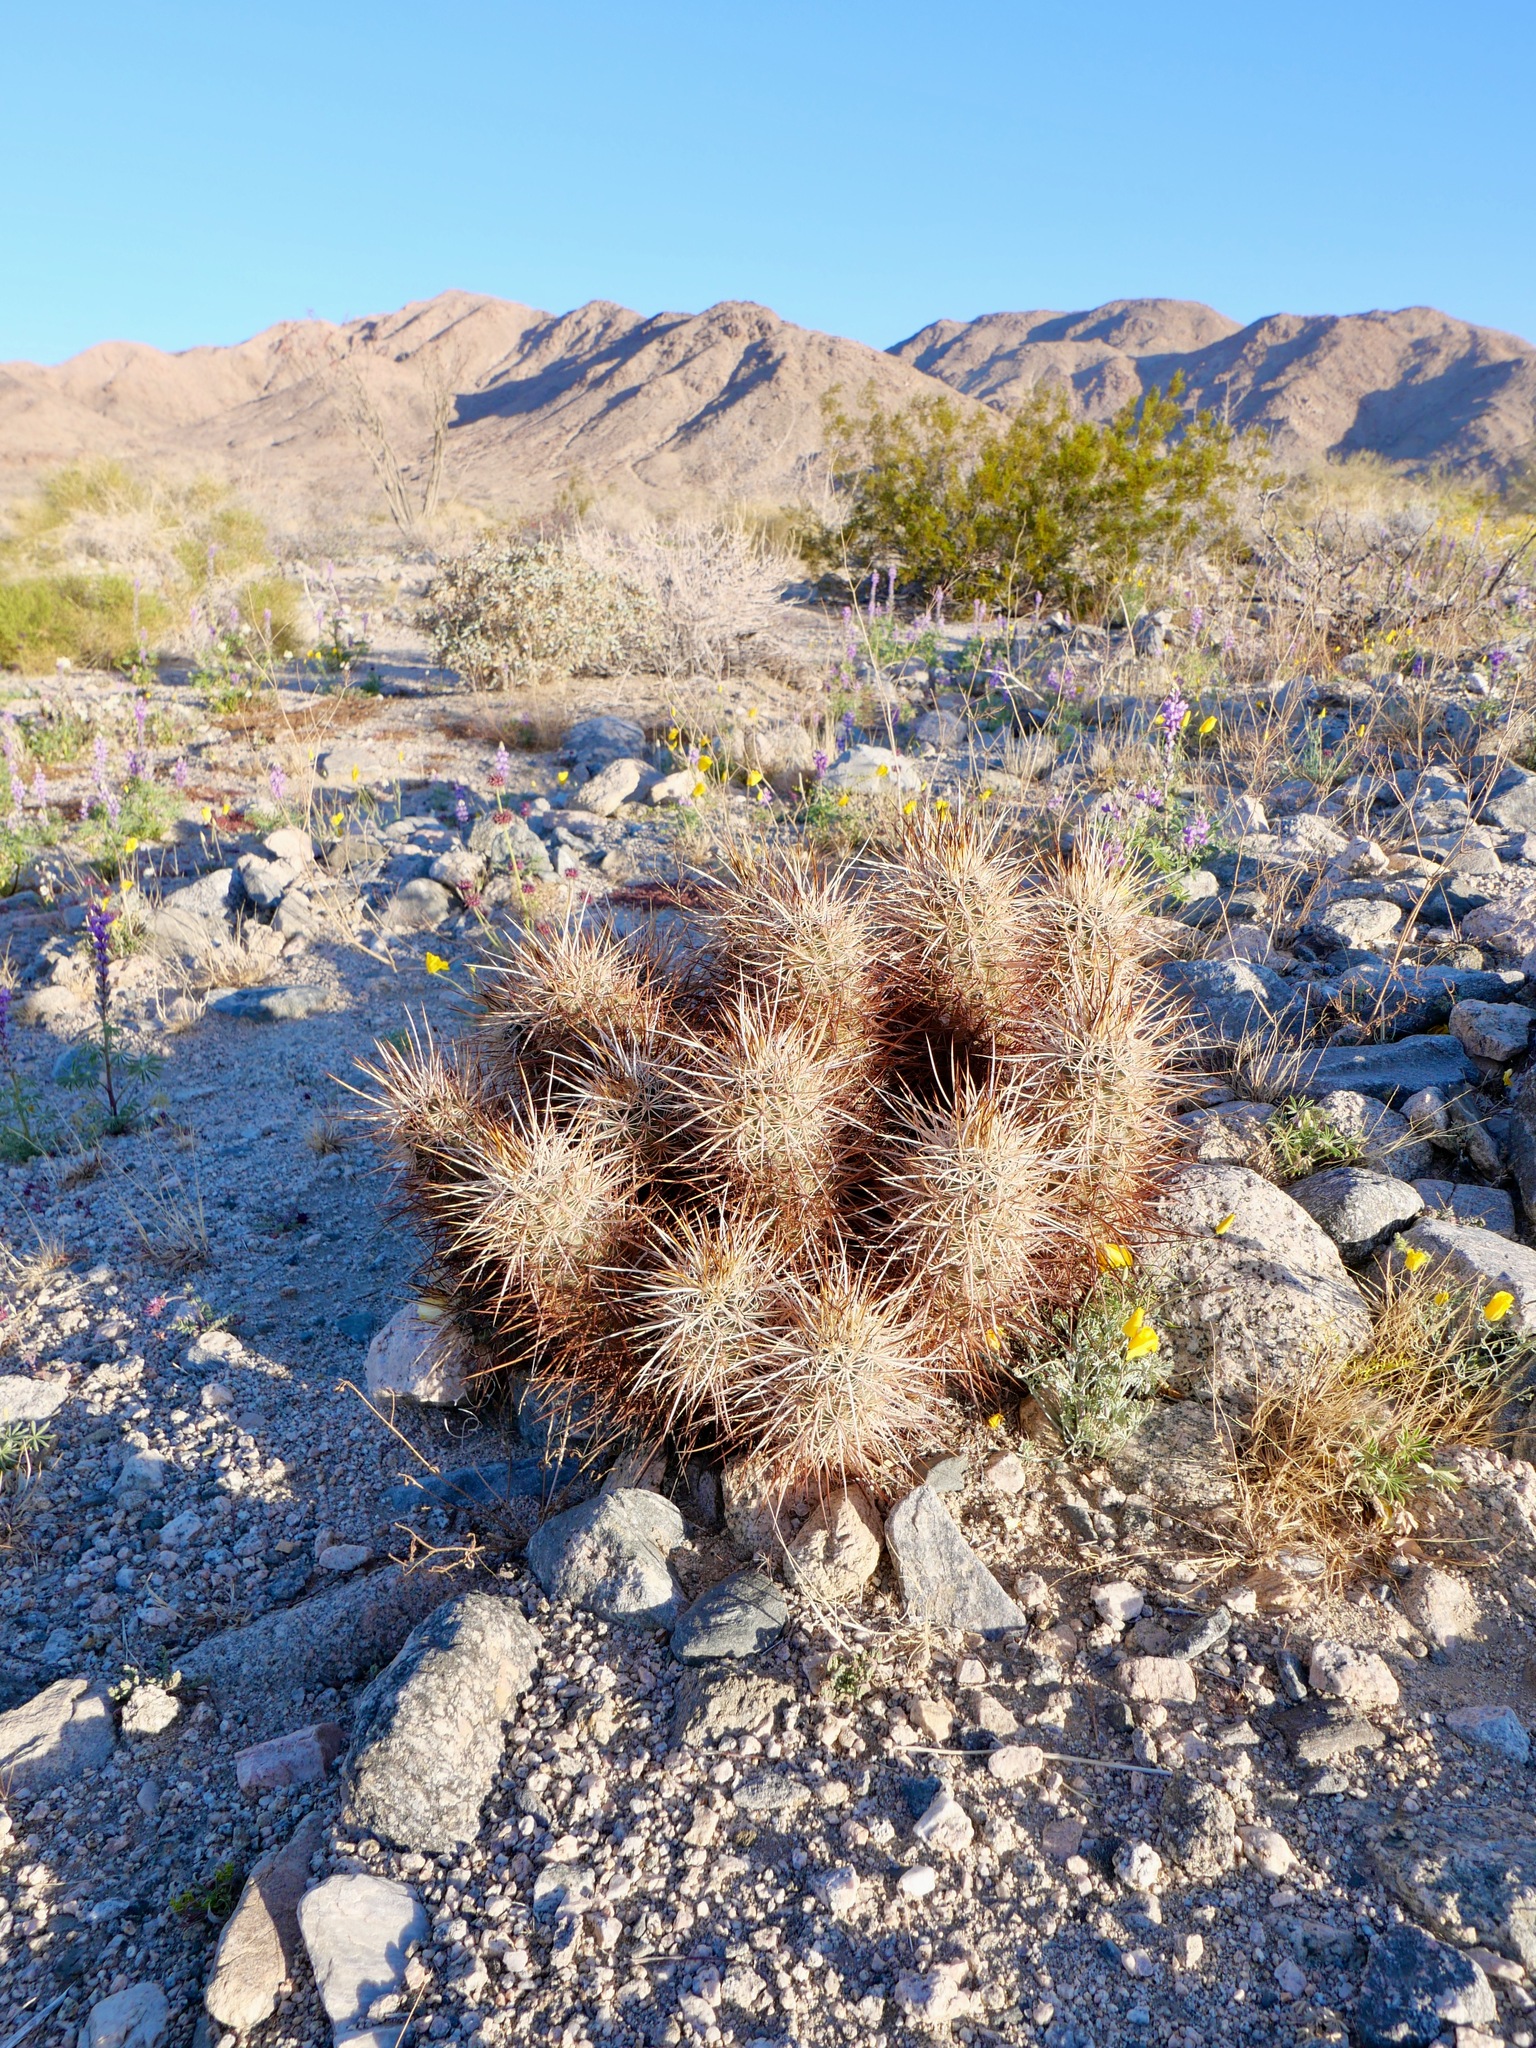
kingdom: Plantae
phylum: Tracheophyta
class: Magnoliopsida
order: Caryophyllales
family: Cactaceae
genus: Echinocereus
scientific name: Echinocereus engelmannii
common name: Engelmann's hedgehog cactus
